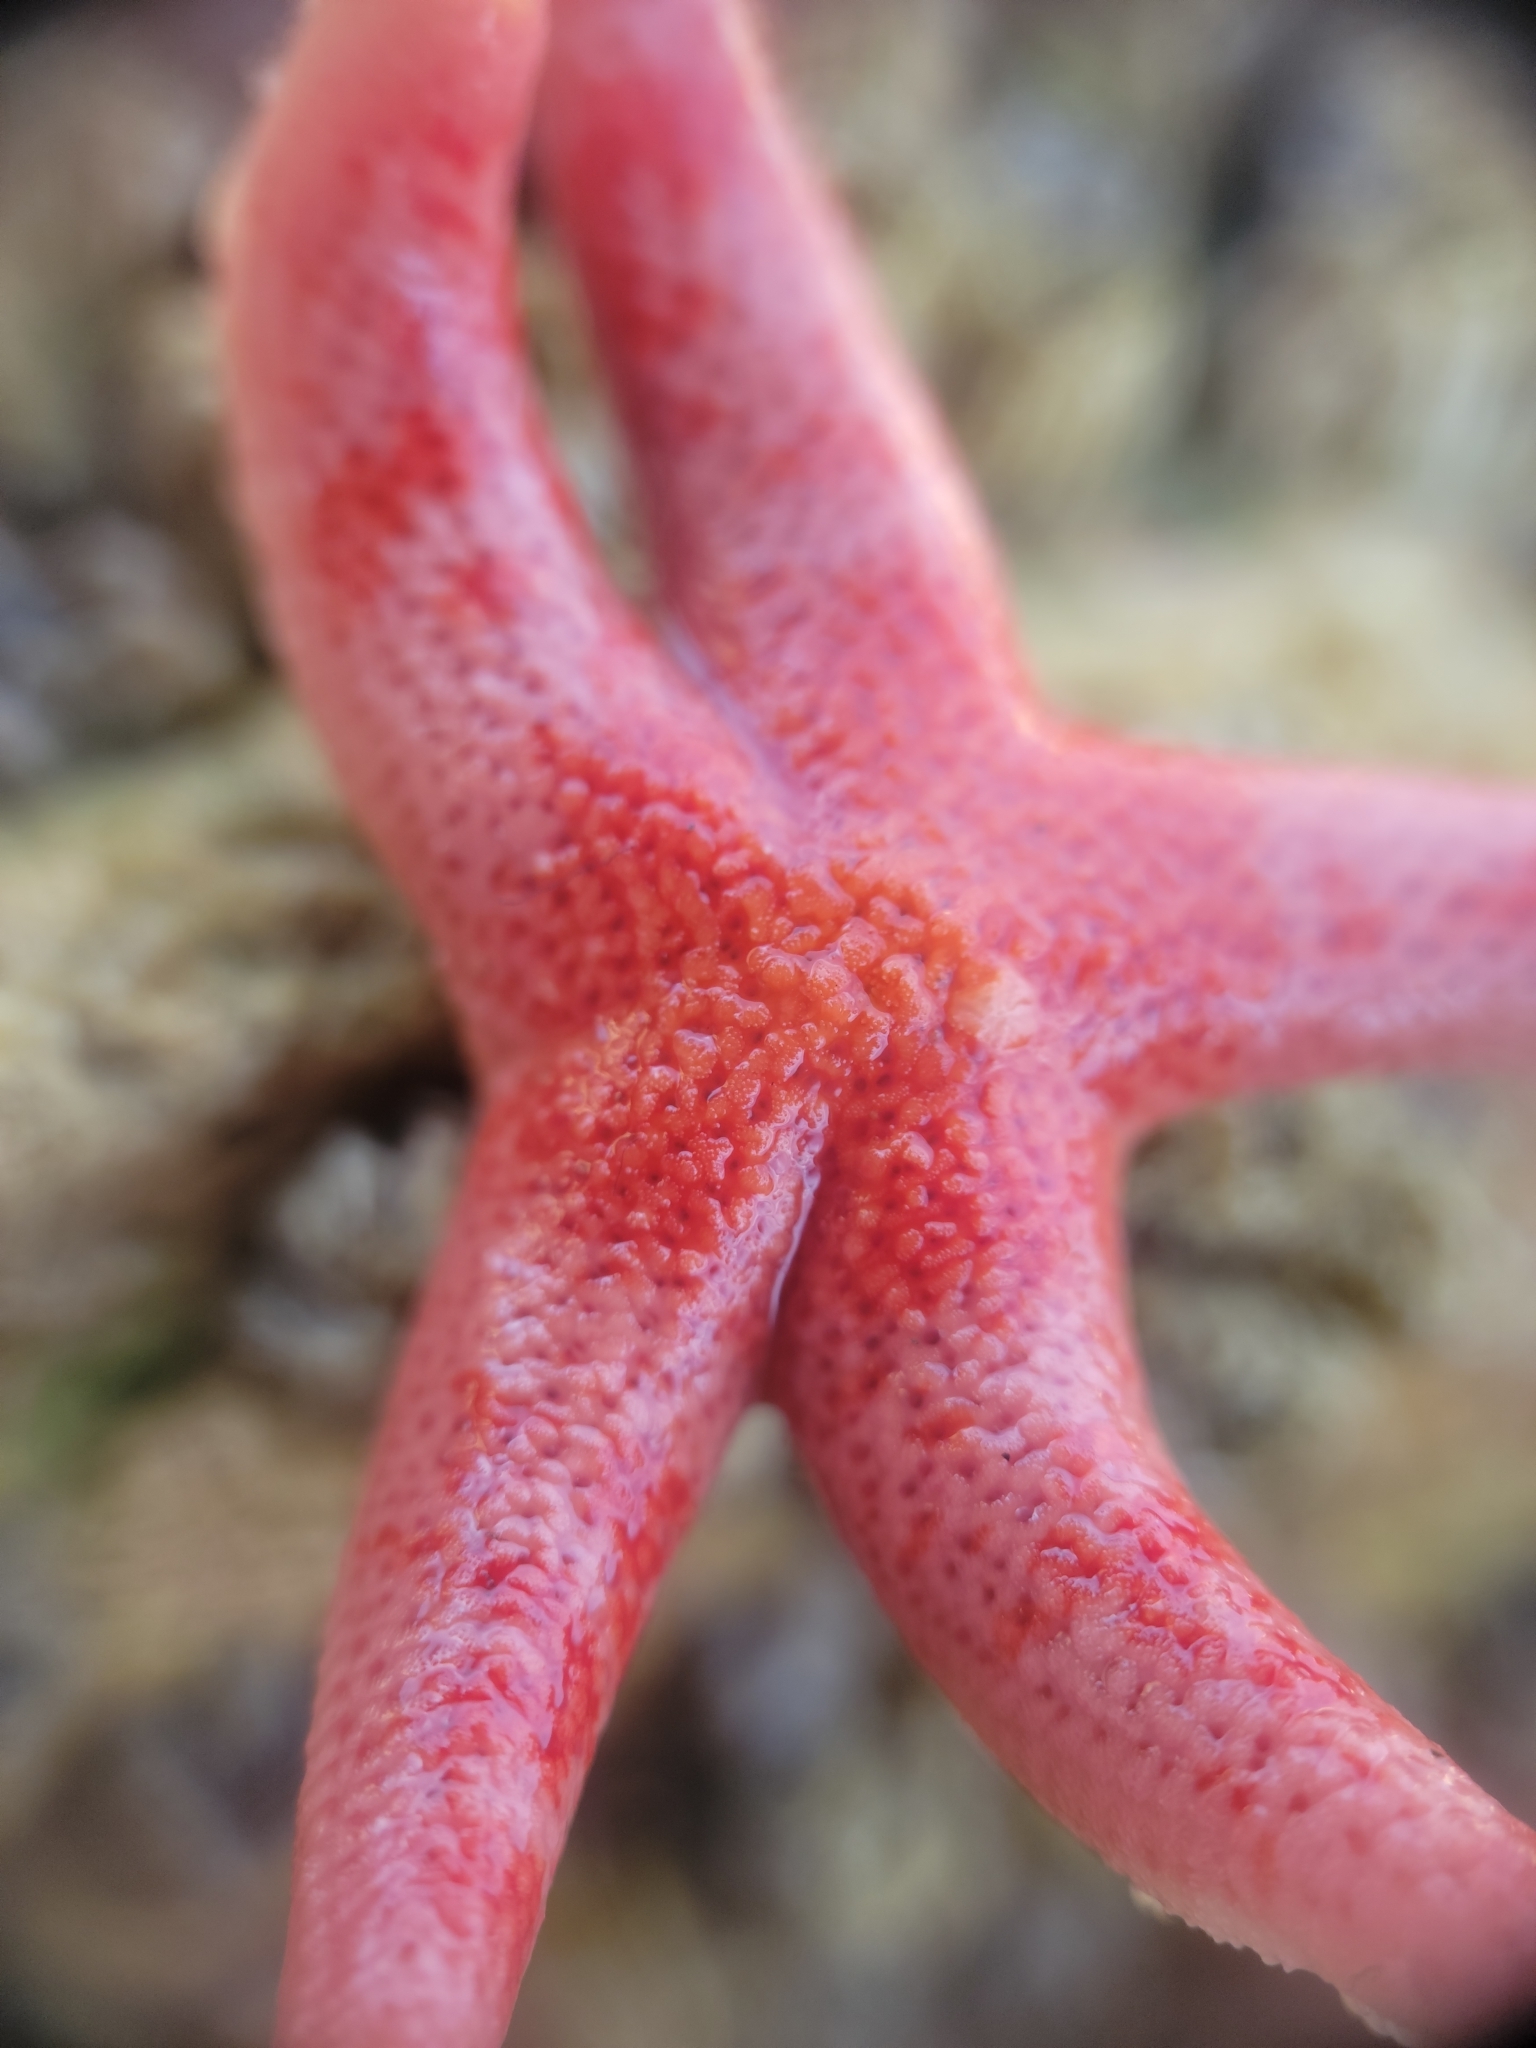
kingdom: Animalia
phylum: Echinodermata
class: Asteroidea
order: Spinulosida
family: Echinasteridae
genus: Henricia
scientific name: Henricia pumila
